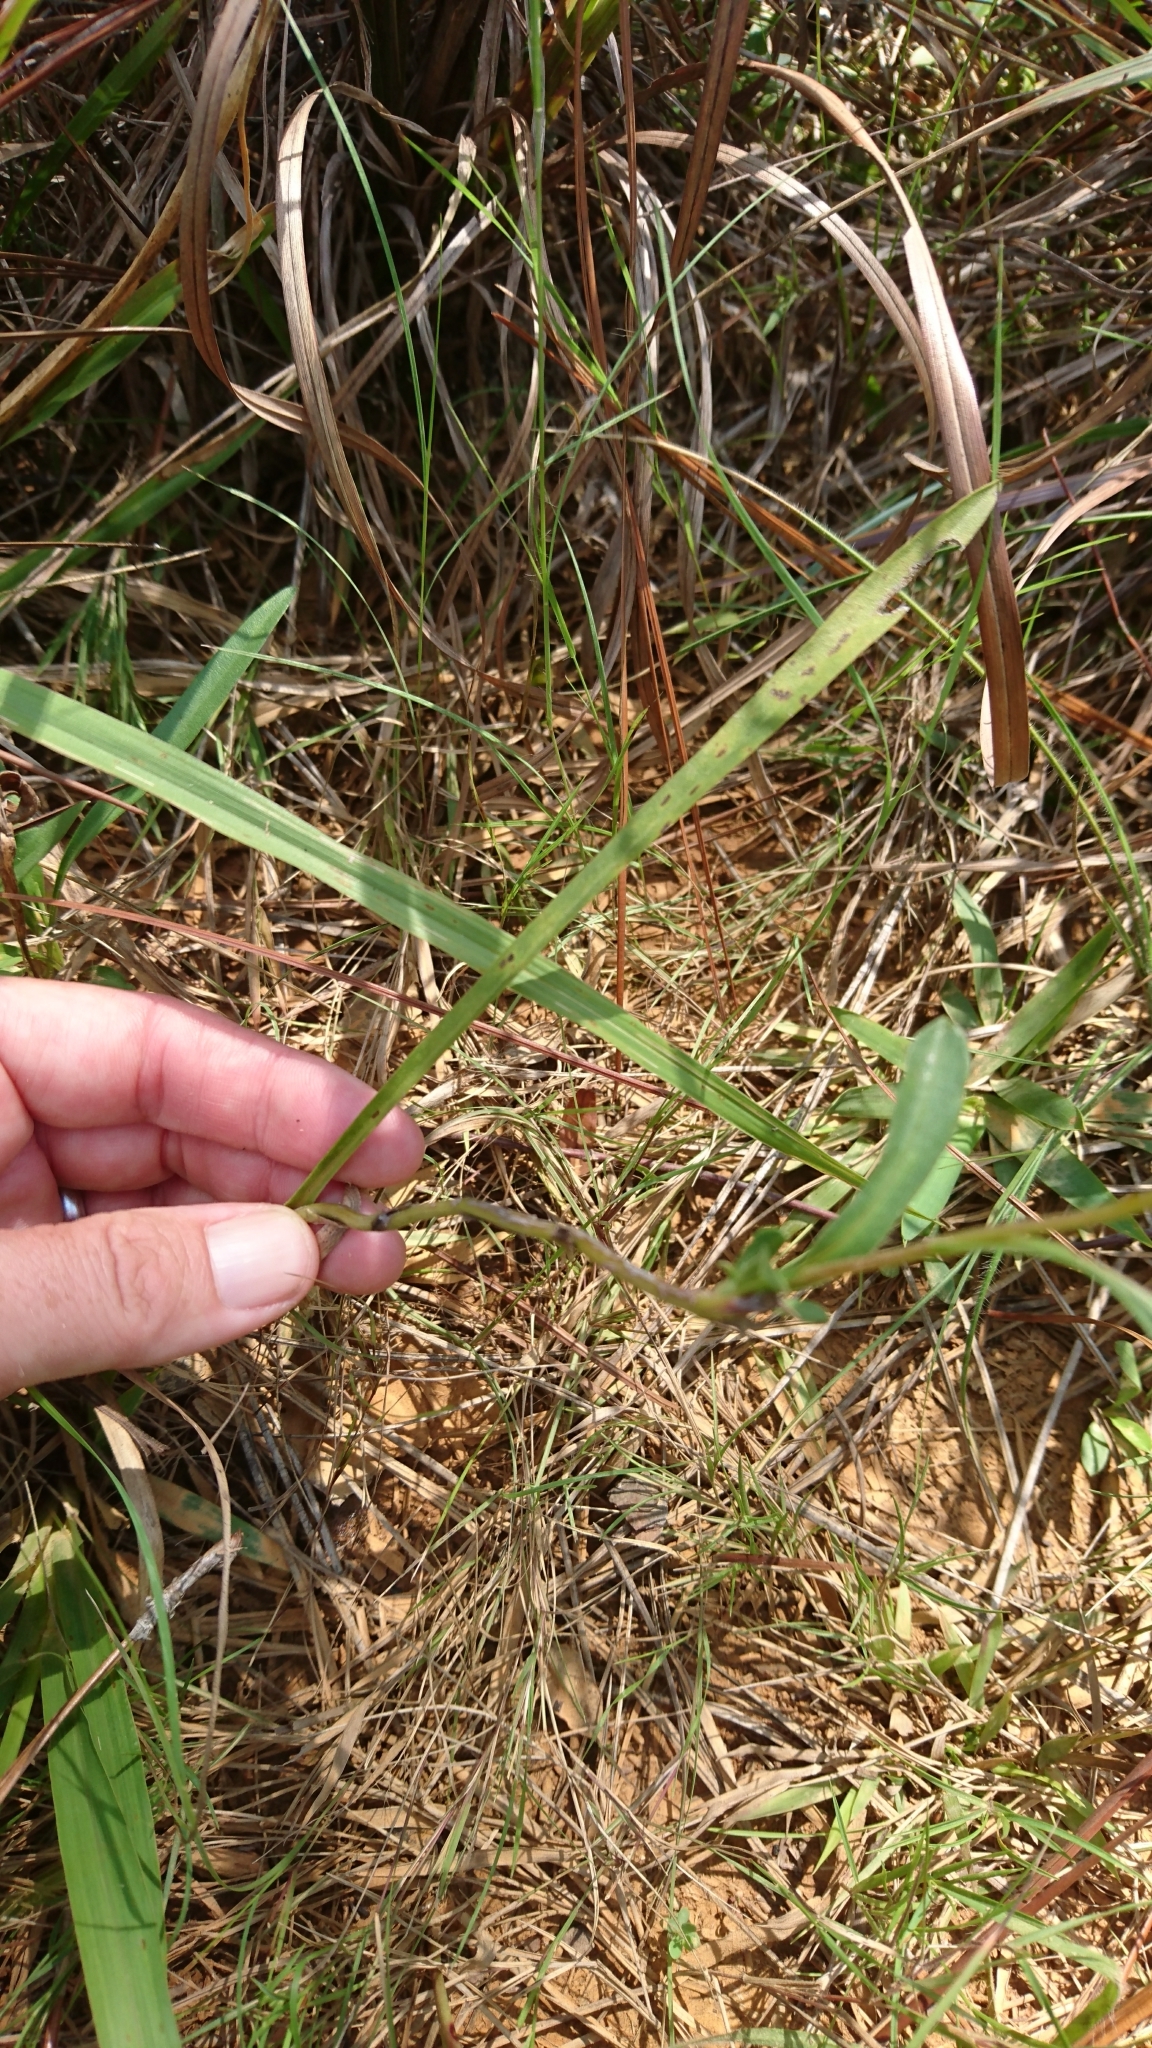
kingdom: Plantae
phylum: Tracheophyta
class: Magnoliopsida
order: Asterales
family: Asteraceae
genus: Eurybia
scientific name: Eurybia hemispherica
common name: Showy aster
